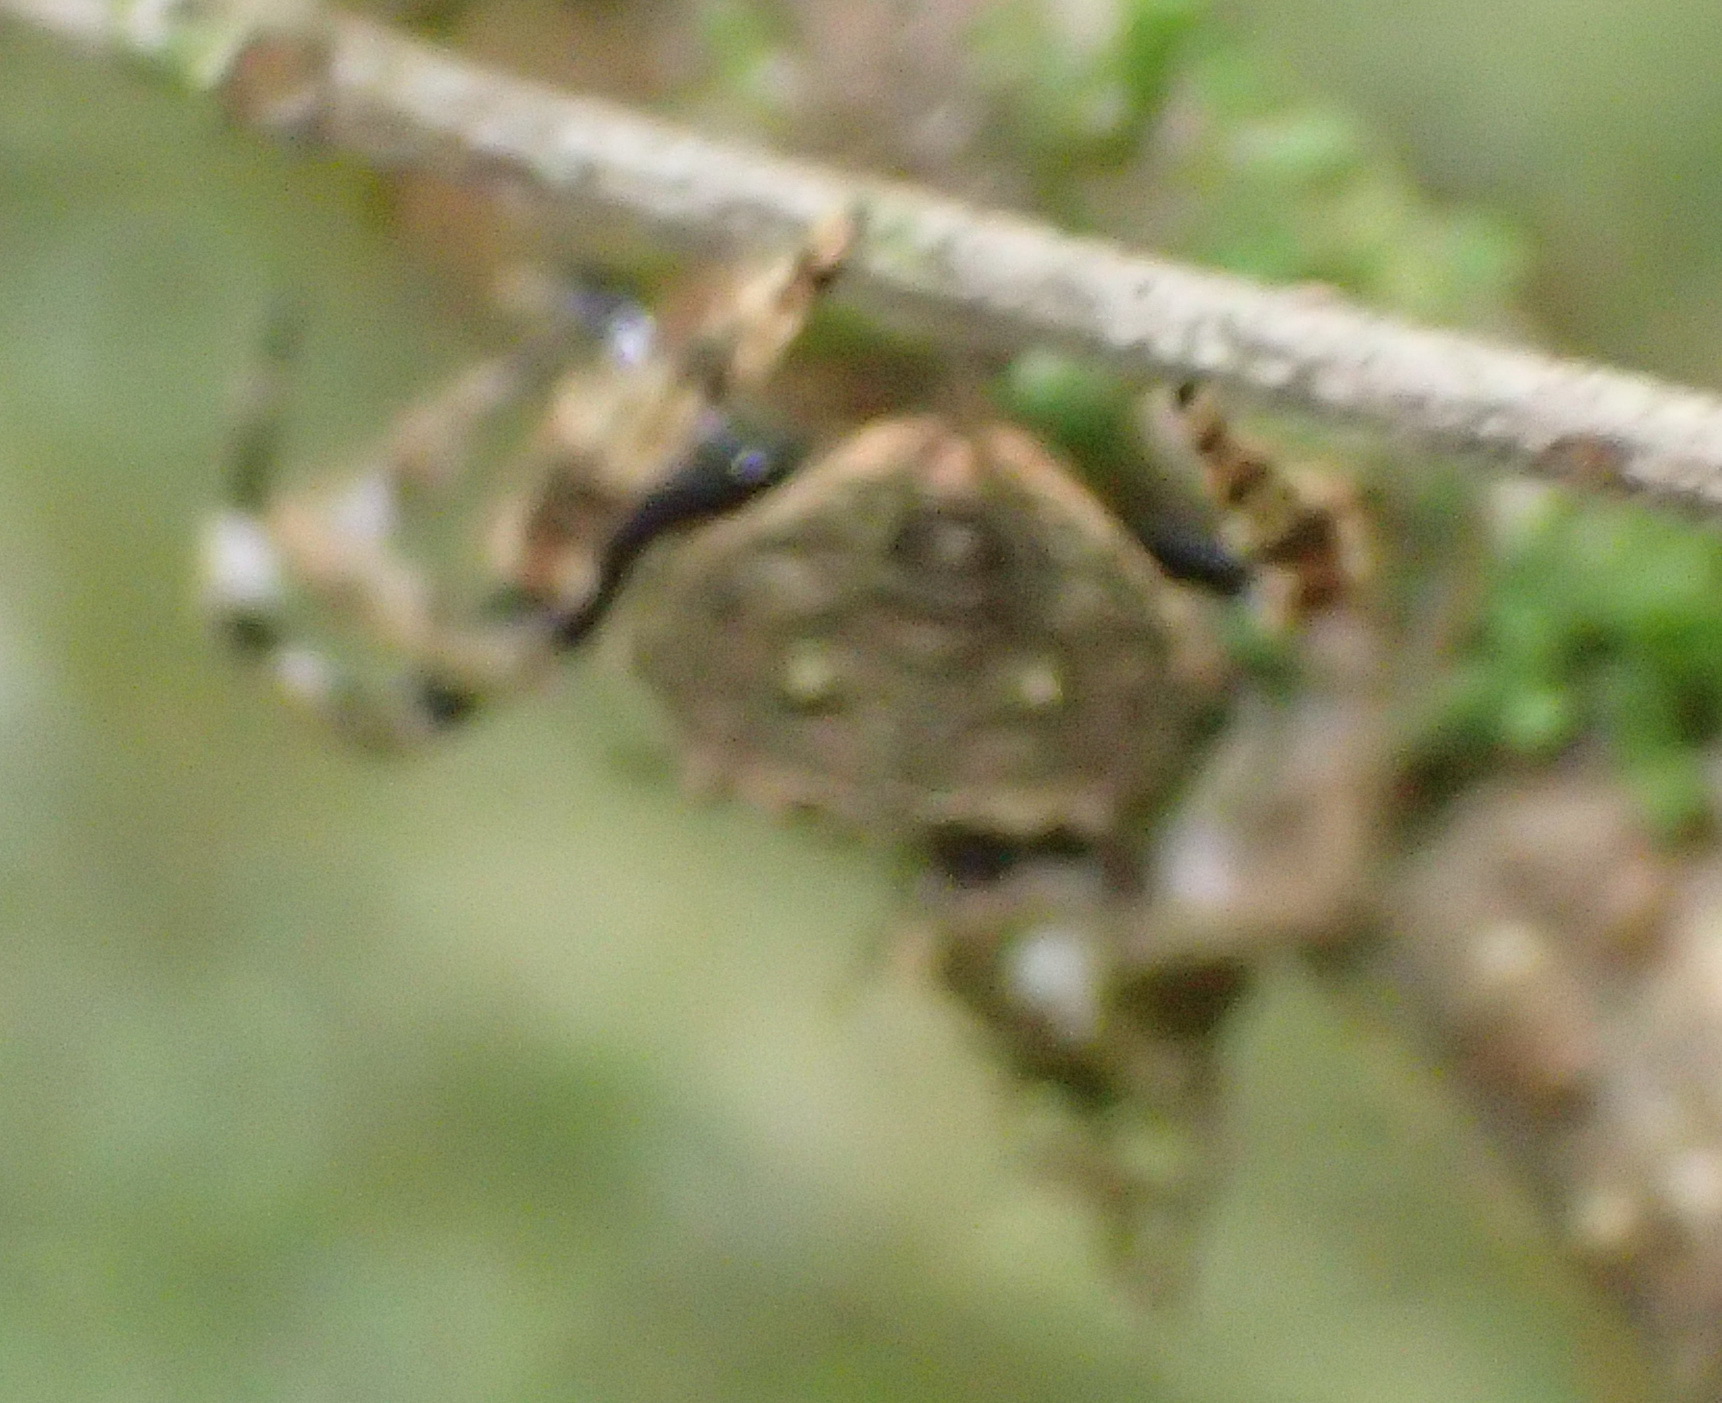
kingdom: Animalia
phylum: Arthropoda
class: Arachnida
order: Araneae
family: Araneidae
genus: Caerostris
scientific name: Caerostris sexcuspidata
